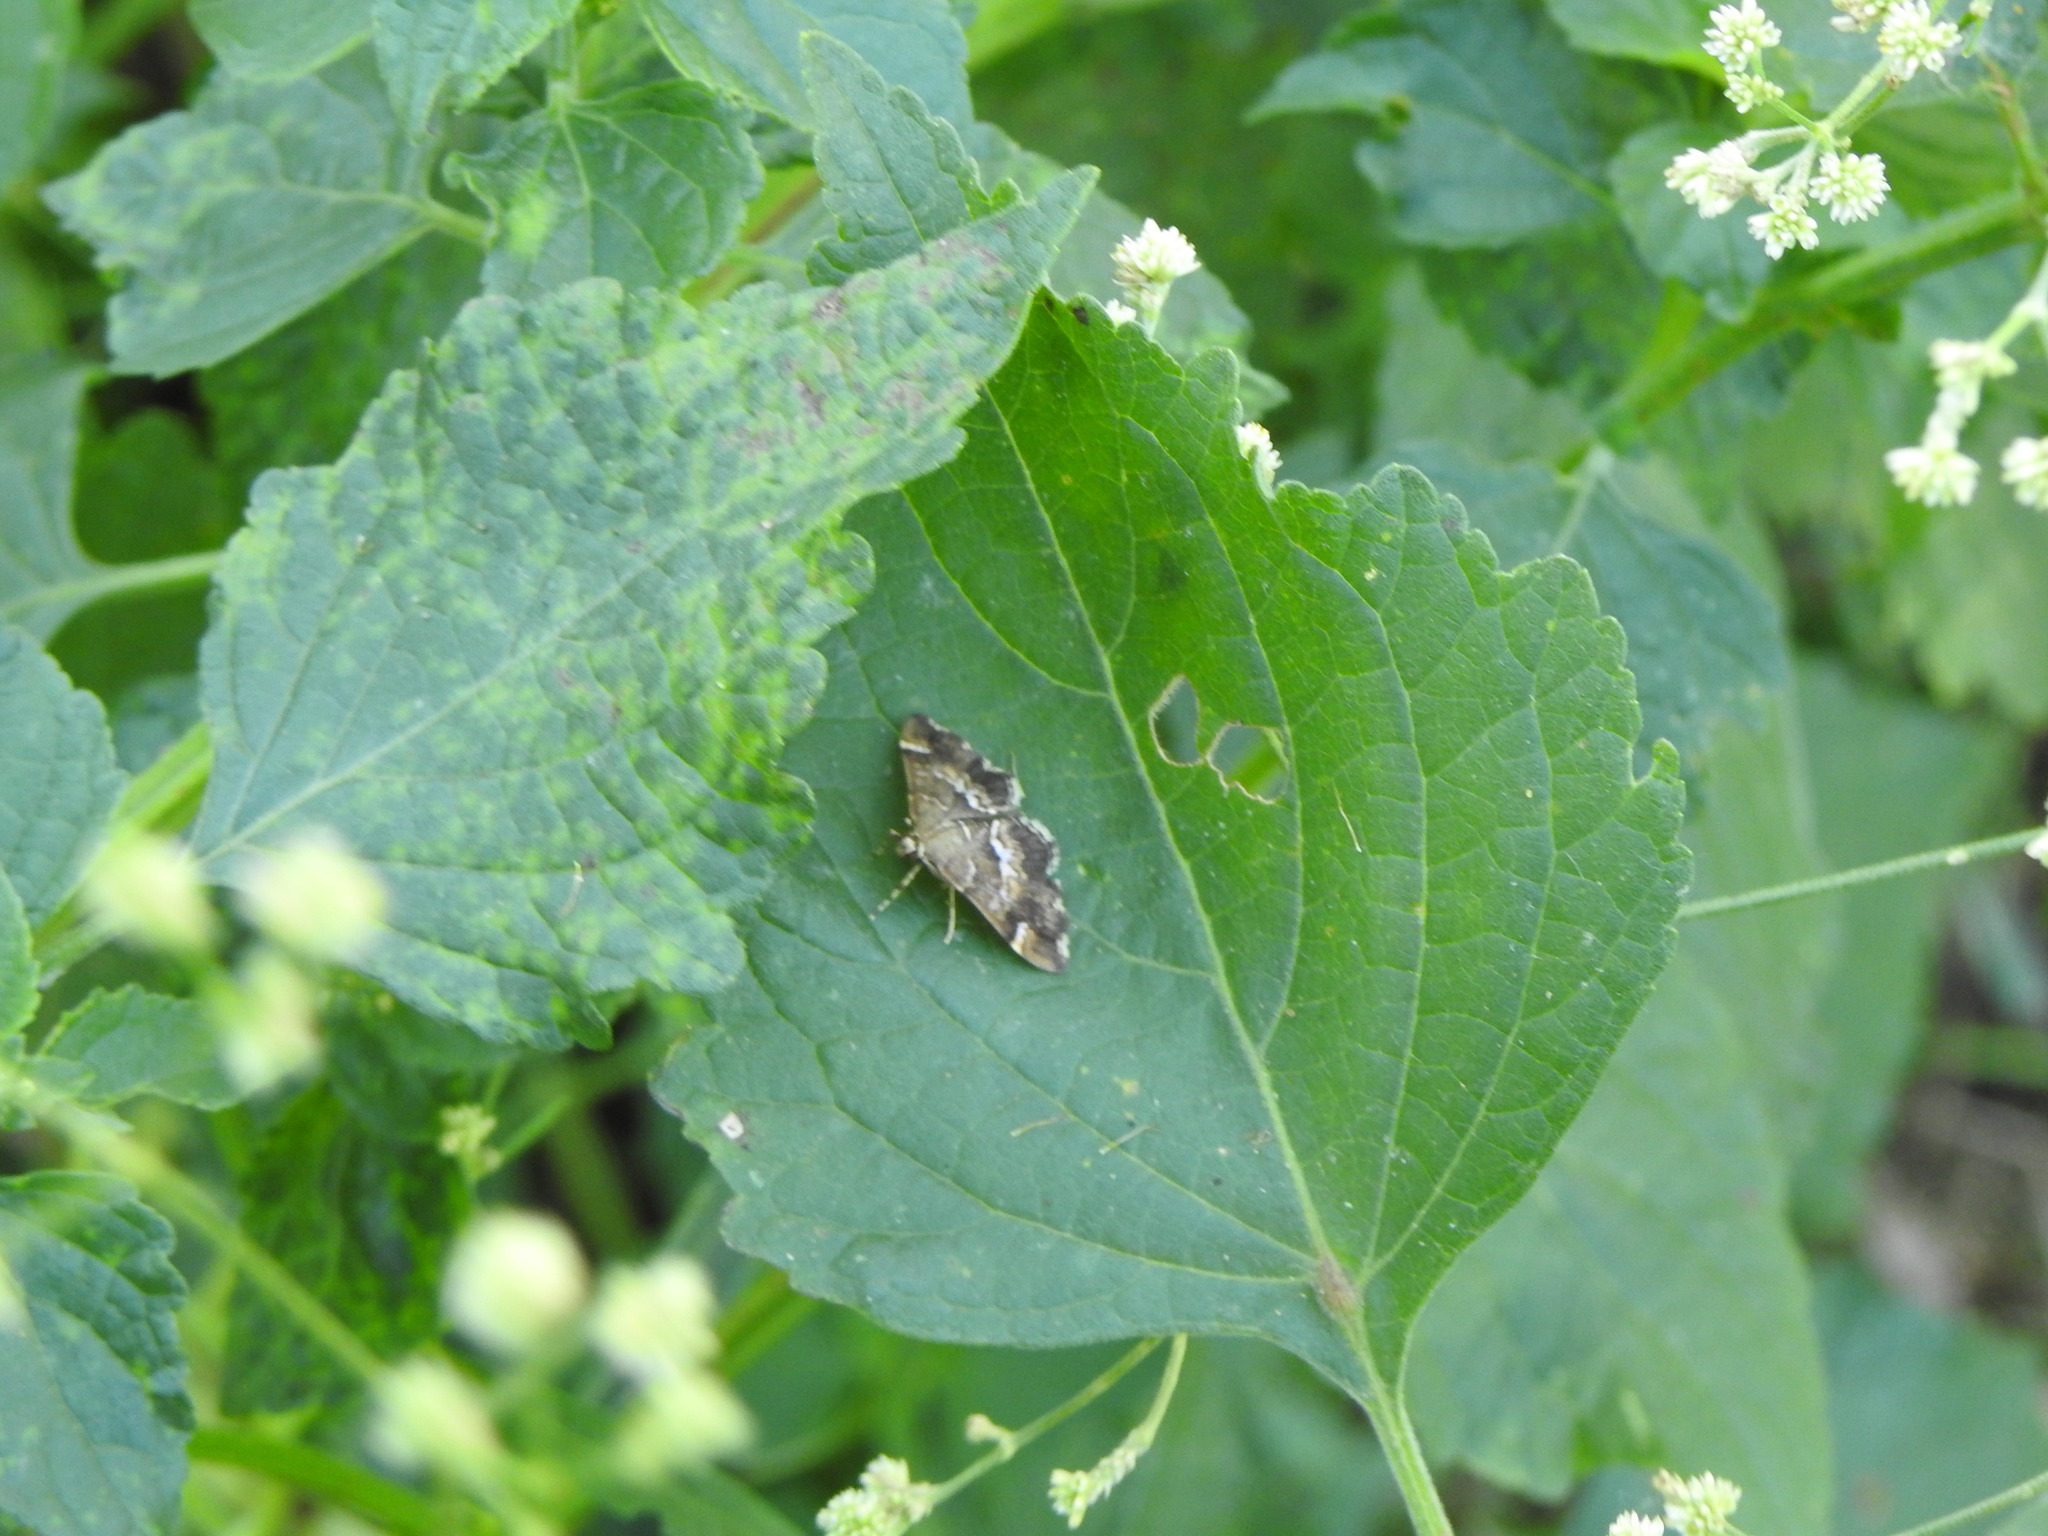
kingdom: Animalia
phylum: Arthropoda
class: Insecta
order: Lepidoptera
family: Crambidae
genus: Hymenia
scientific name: Hymenia perspectalis
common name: Spotted beet webworm
